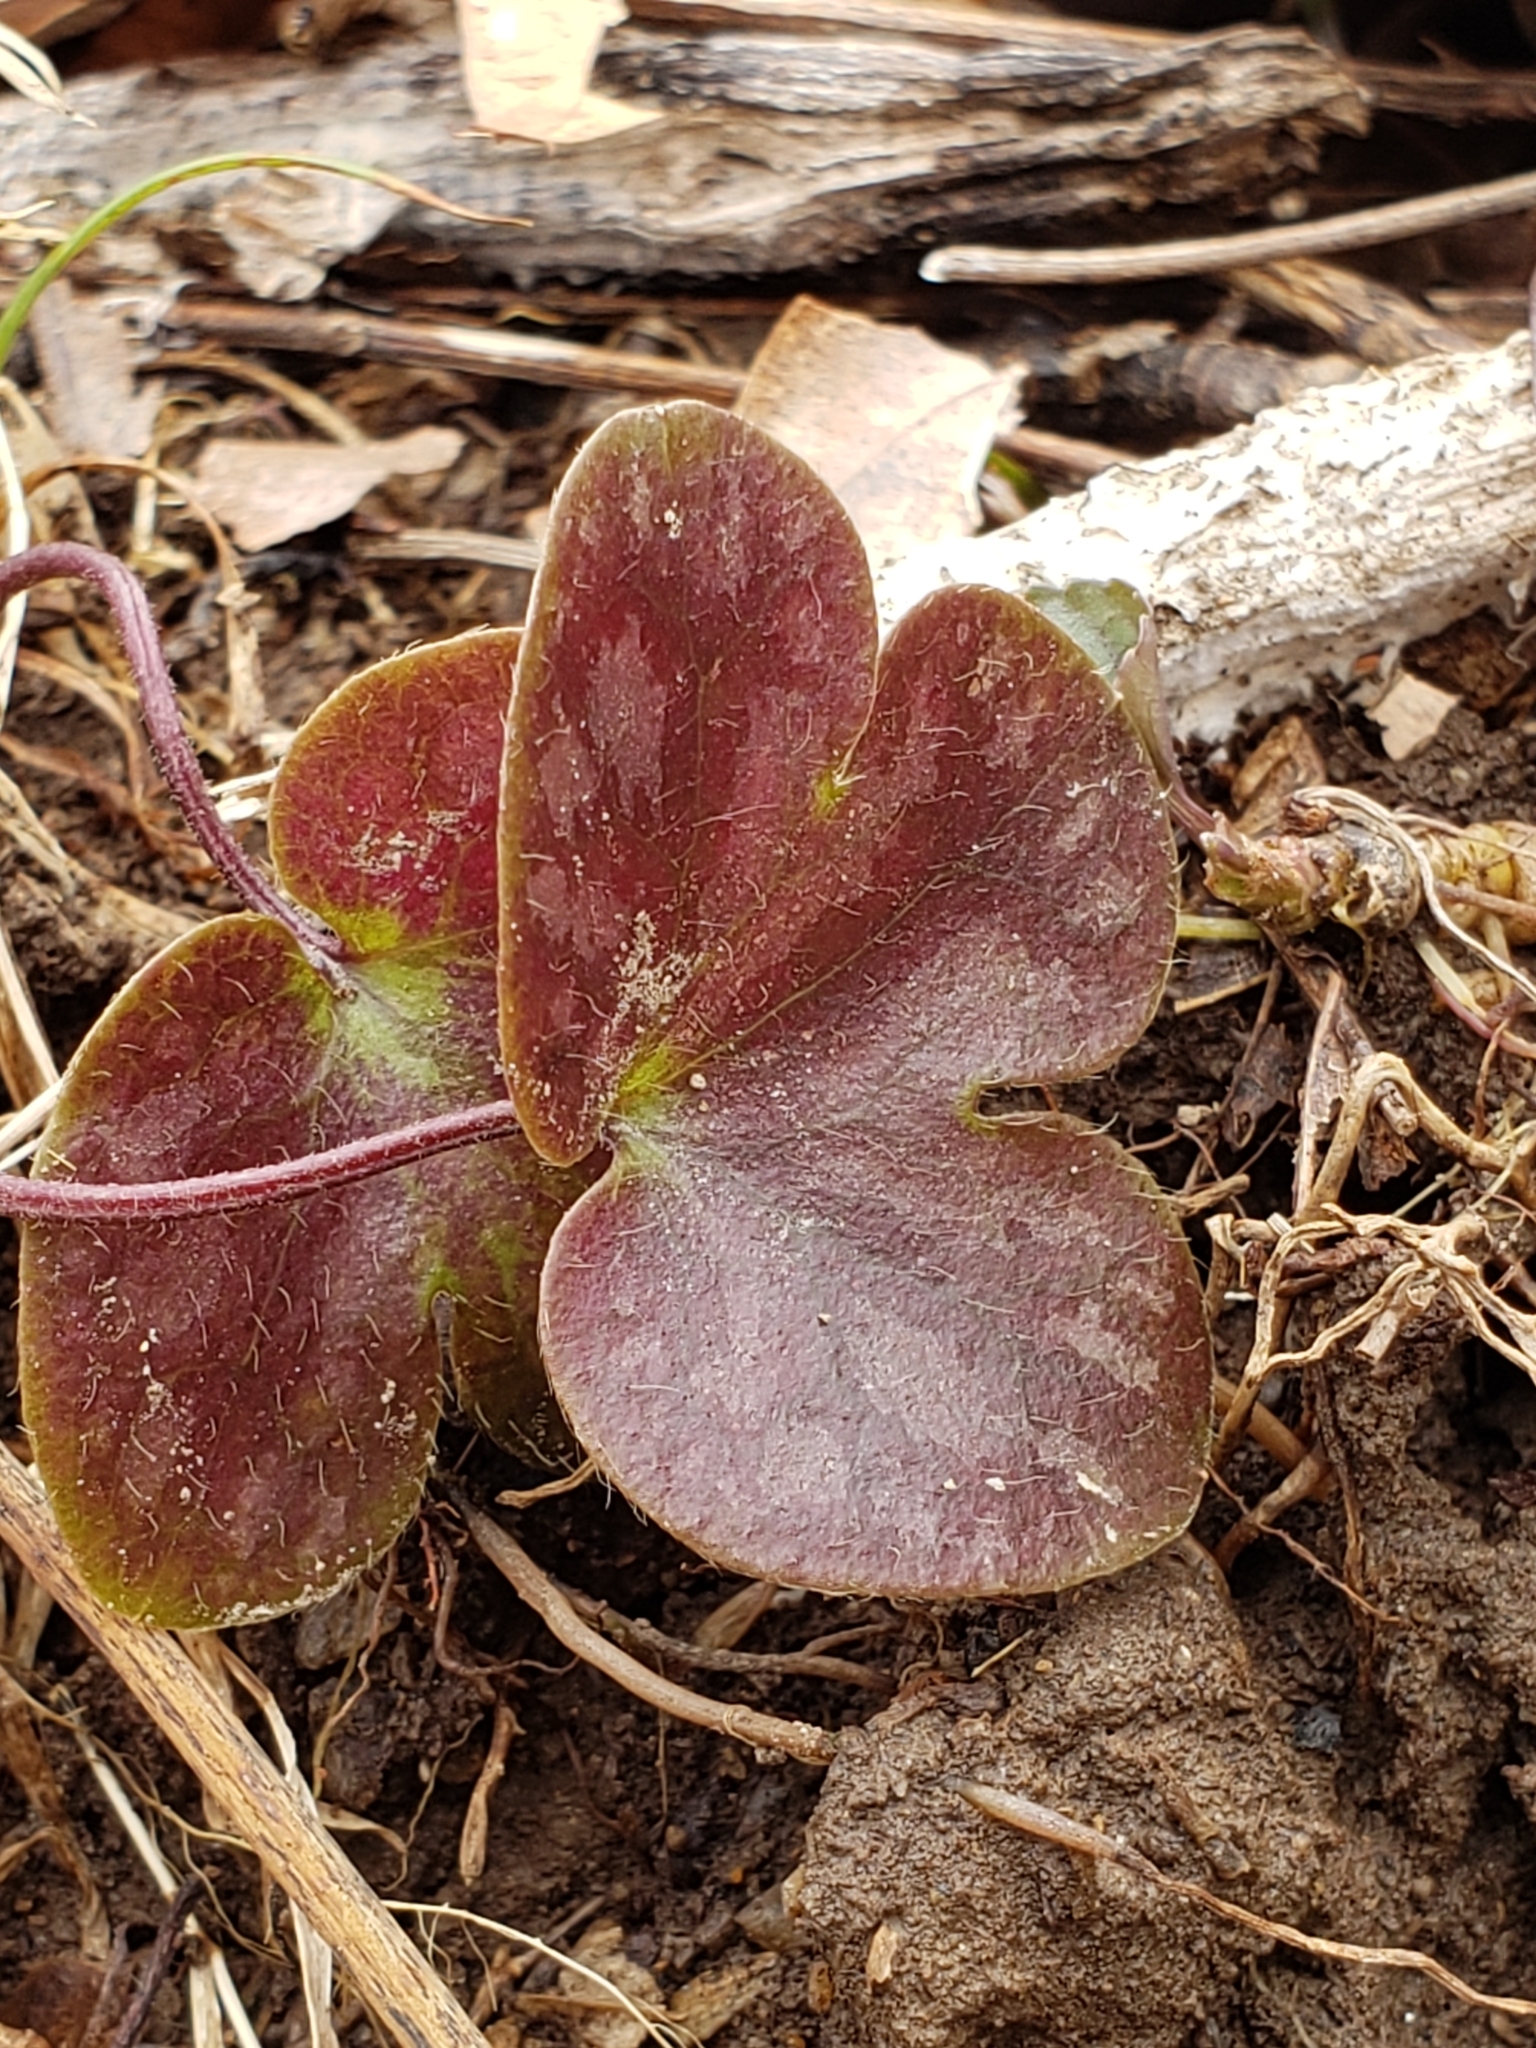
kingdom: Plantae
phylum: Tracheophyta
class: Magnoliopsida
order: Ranunculales
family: Ranunculaceae
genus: Hepatica
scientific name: Hepatica americana
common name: American hepatica
